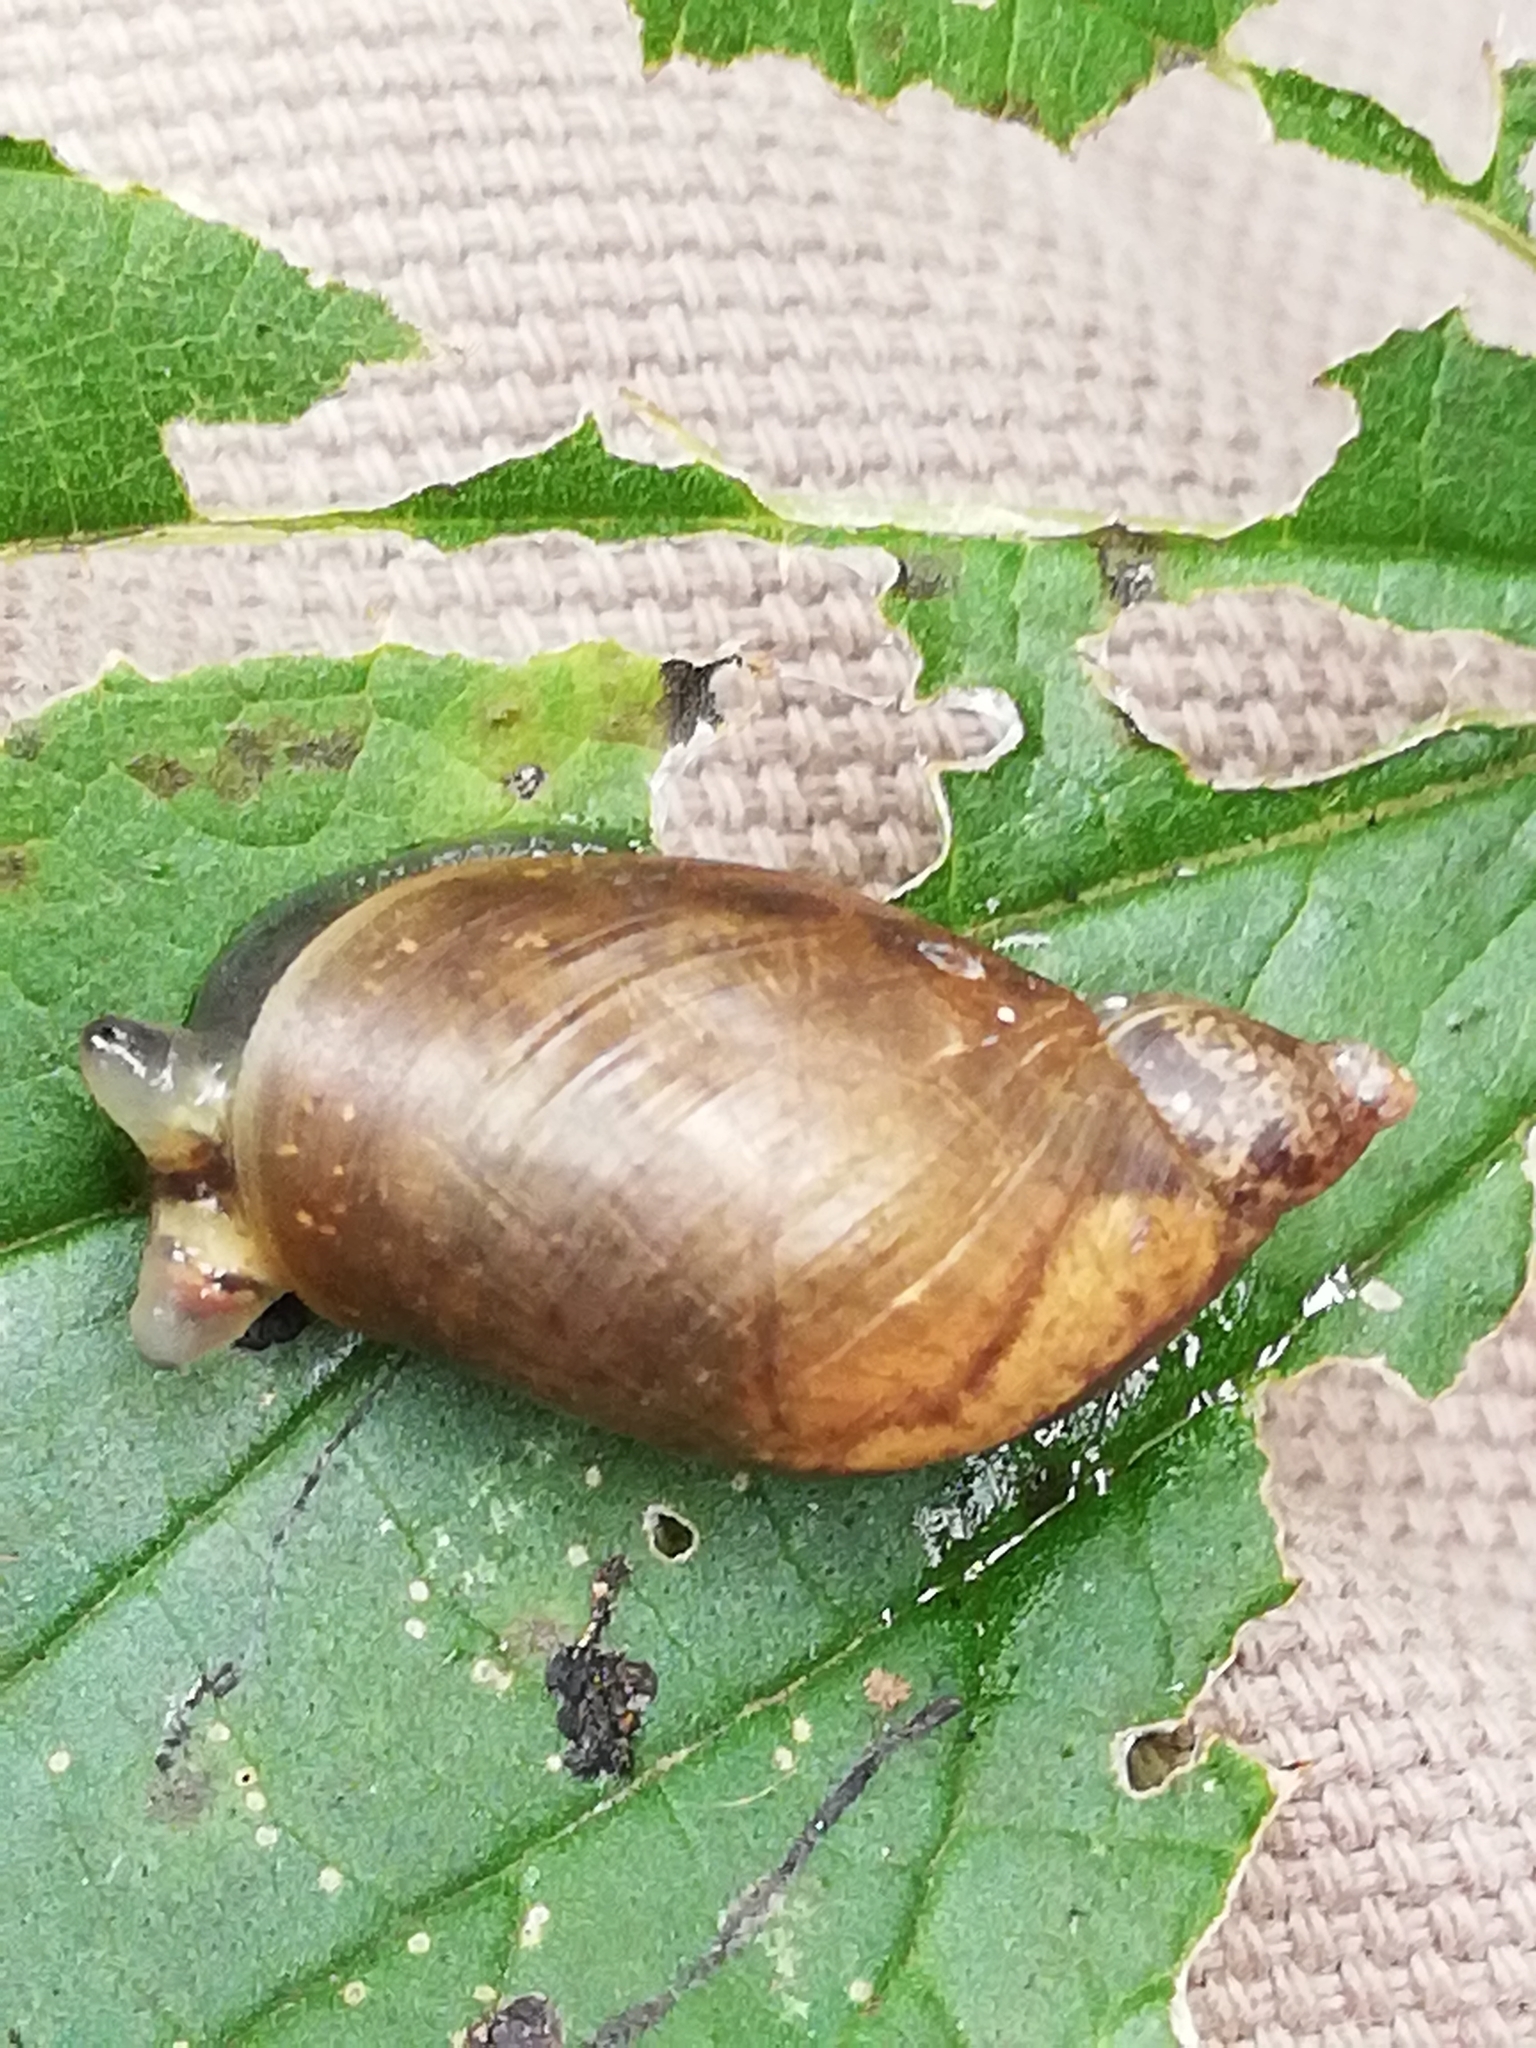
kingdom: Animalia
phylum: Mollusca
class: Gastropoda
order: Stylommatophora
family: Succineidae
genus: Succinea
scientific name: Succinea putris
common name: European ambersnail
